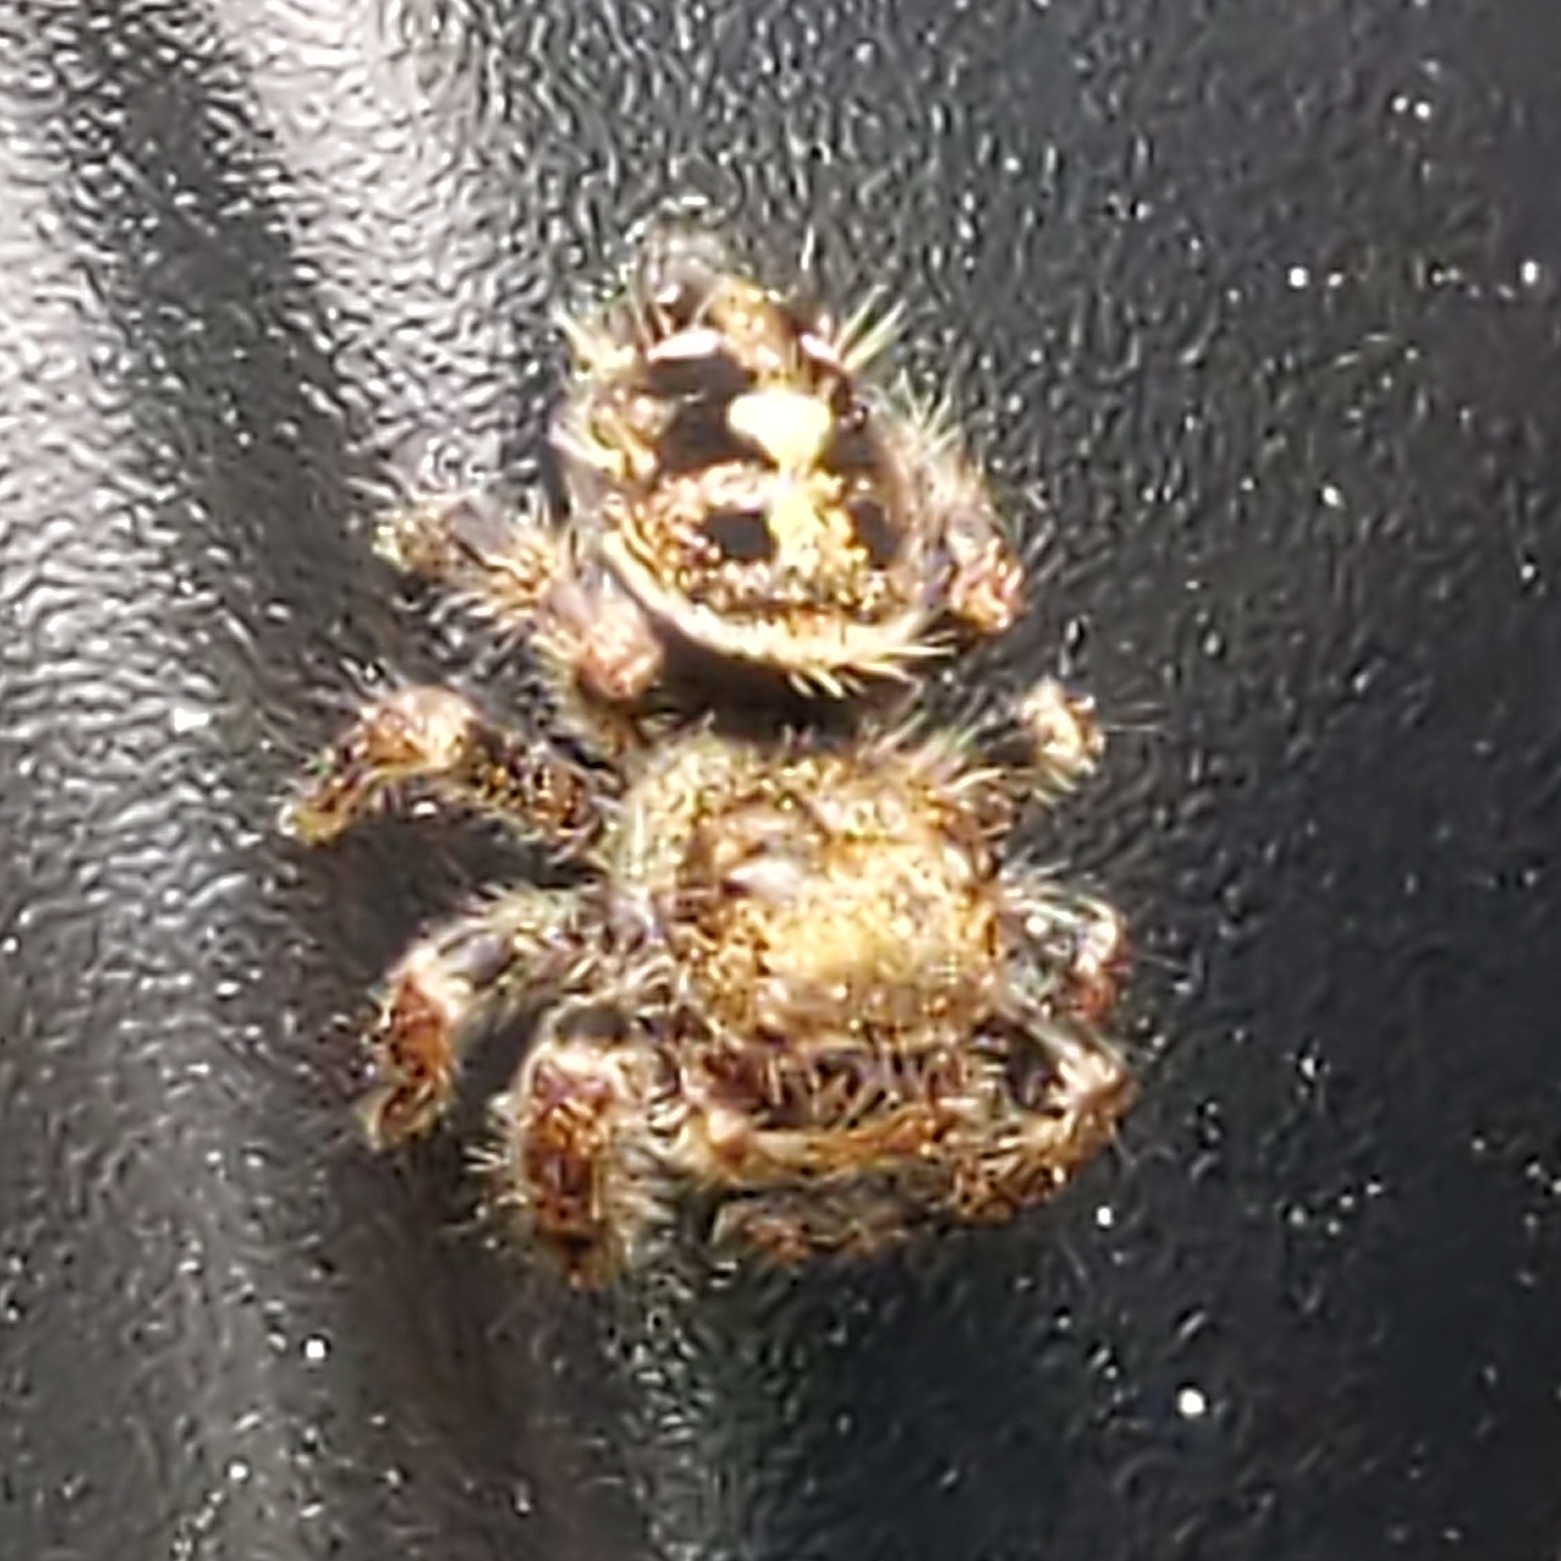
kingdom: Animalia
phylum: Arthropoda
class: Arachnida
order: Araneae
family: Salticidae
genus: Phidippus
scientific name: Phidippus audax
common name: Bold jumper
